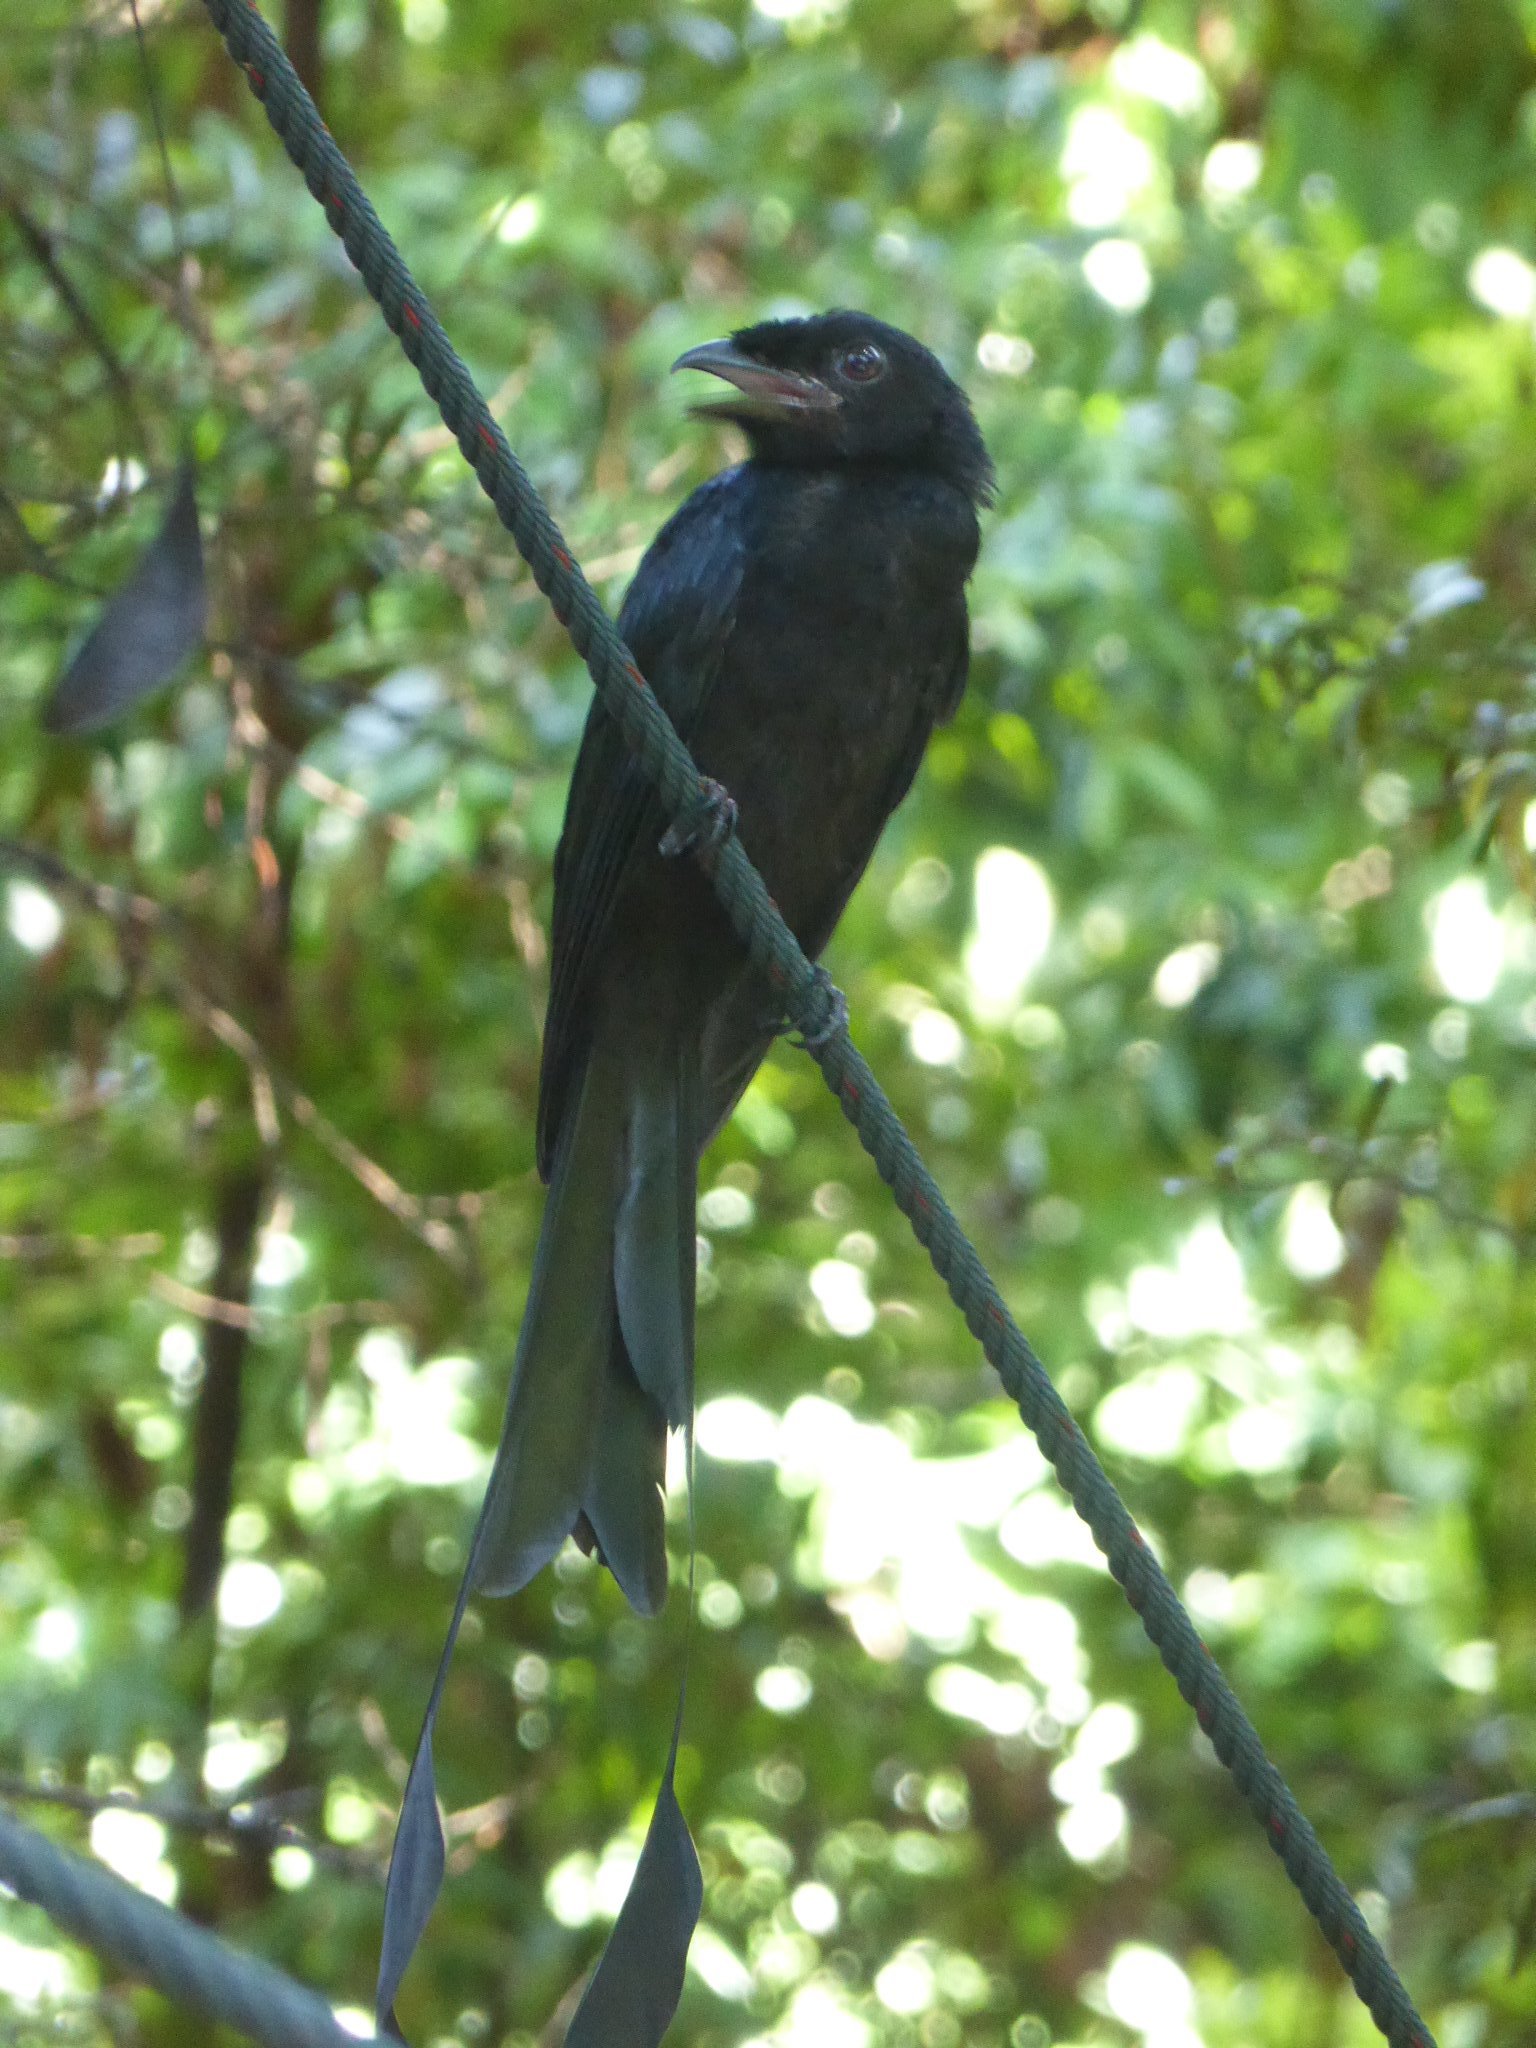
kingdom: Animalia
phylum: Chordata
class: Aves
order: Passeriformes
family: Dicruridae
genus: Dicrurus
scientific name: Dicrurus paradiseus
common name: Greater racket-tailed drongo
